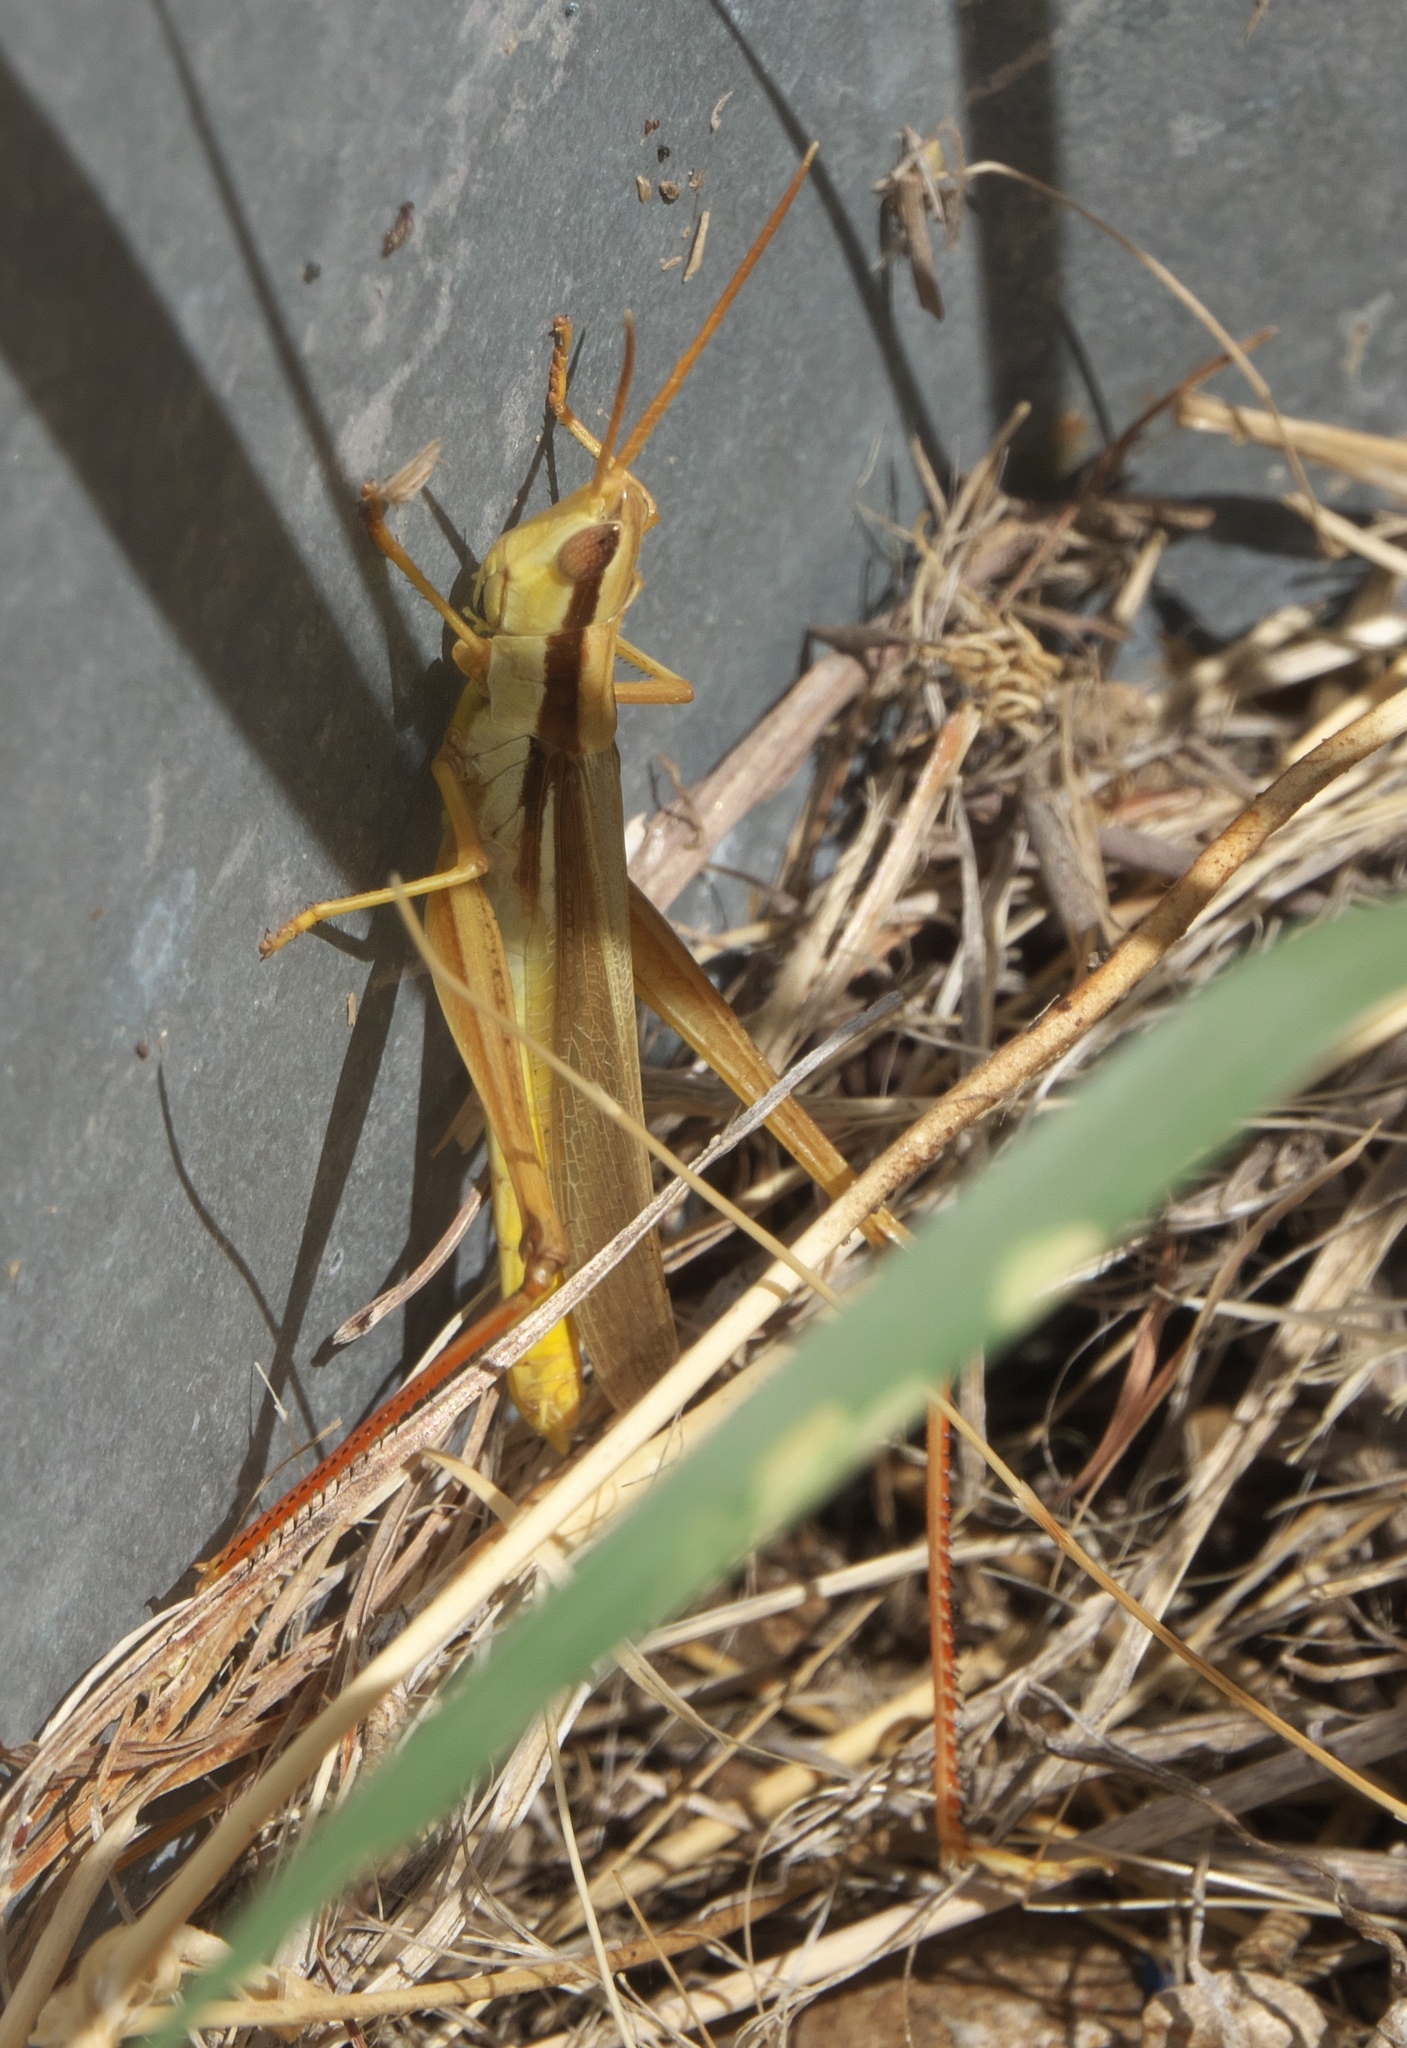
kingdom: Animalia
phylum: Arthropoda
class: Insecta
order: Orthoptera
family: Acrididae
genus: Mermiria
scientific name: Mermiria bivittata
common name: Two-striped mermiria grasshopper
